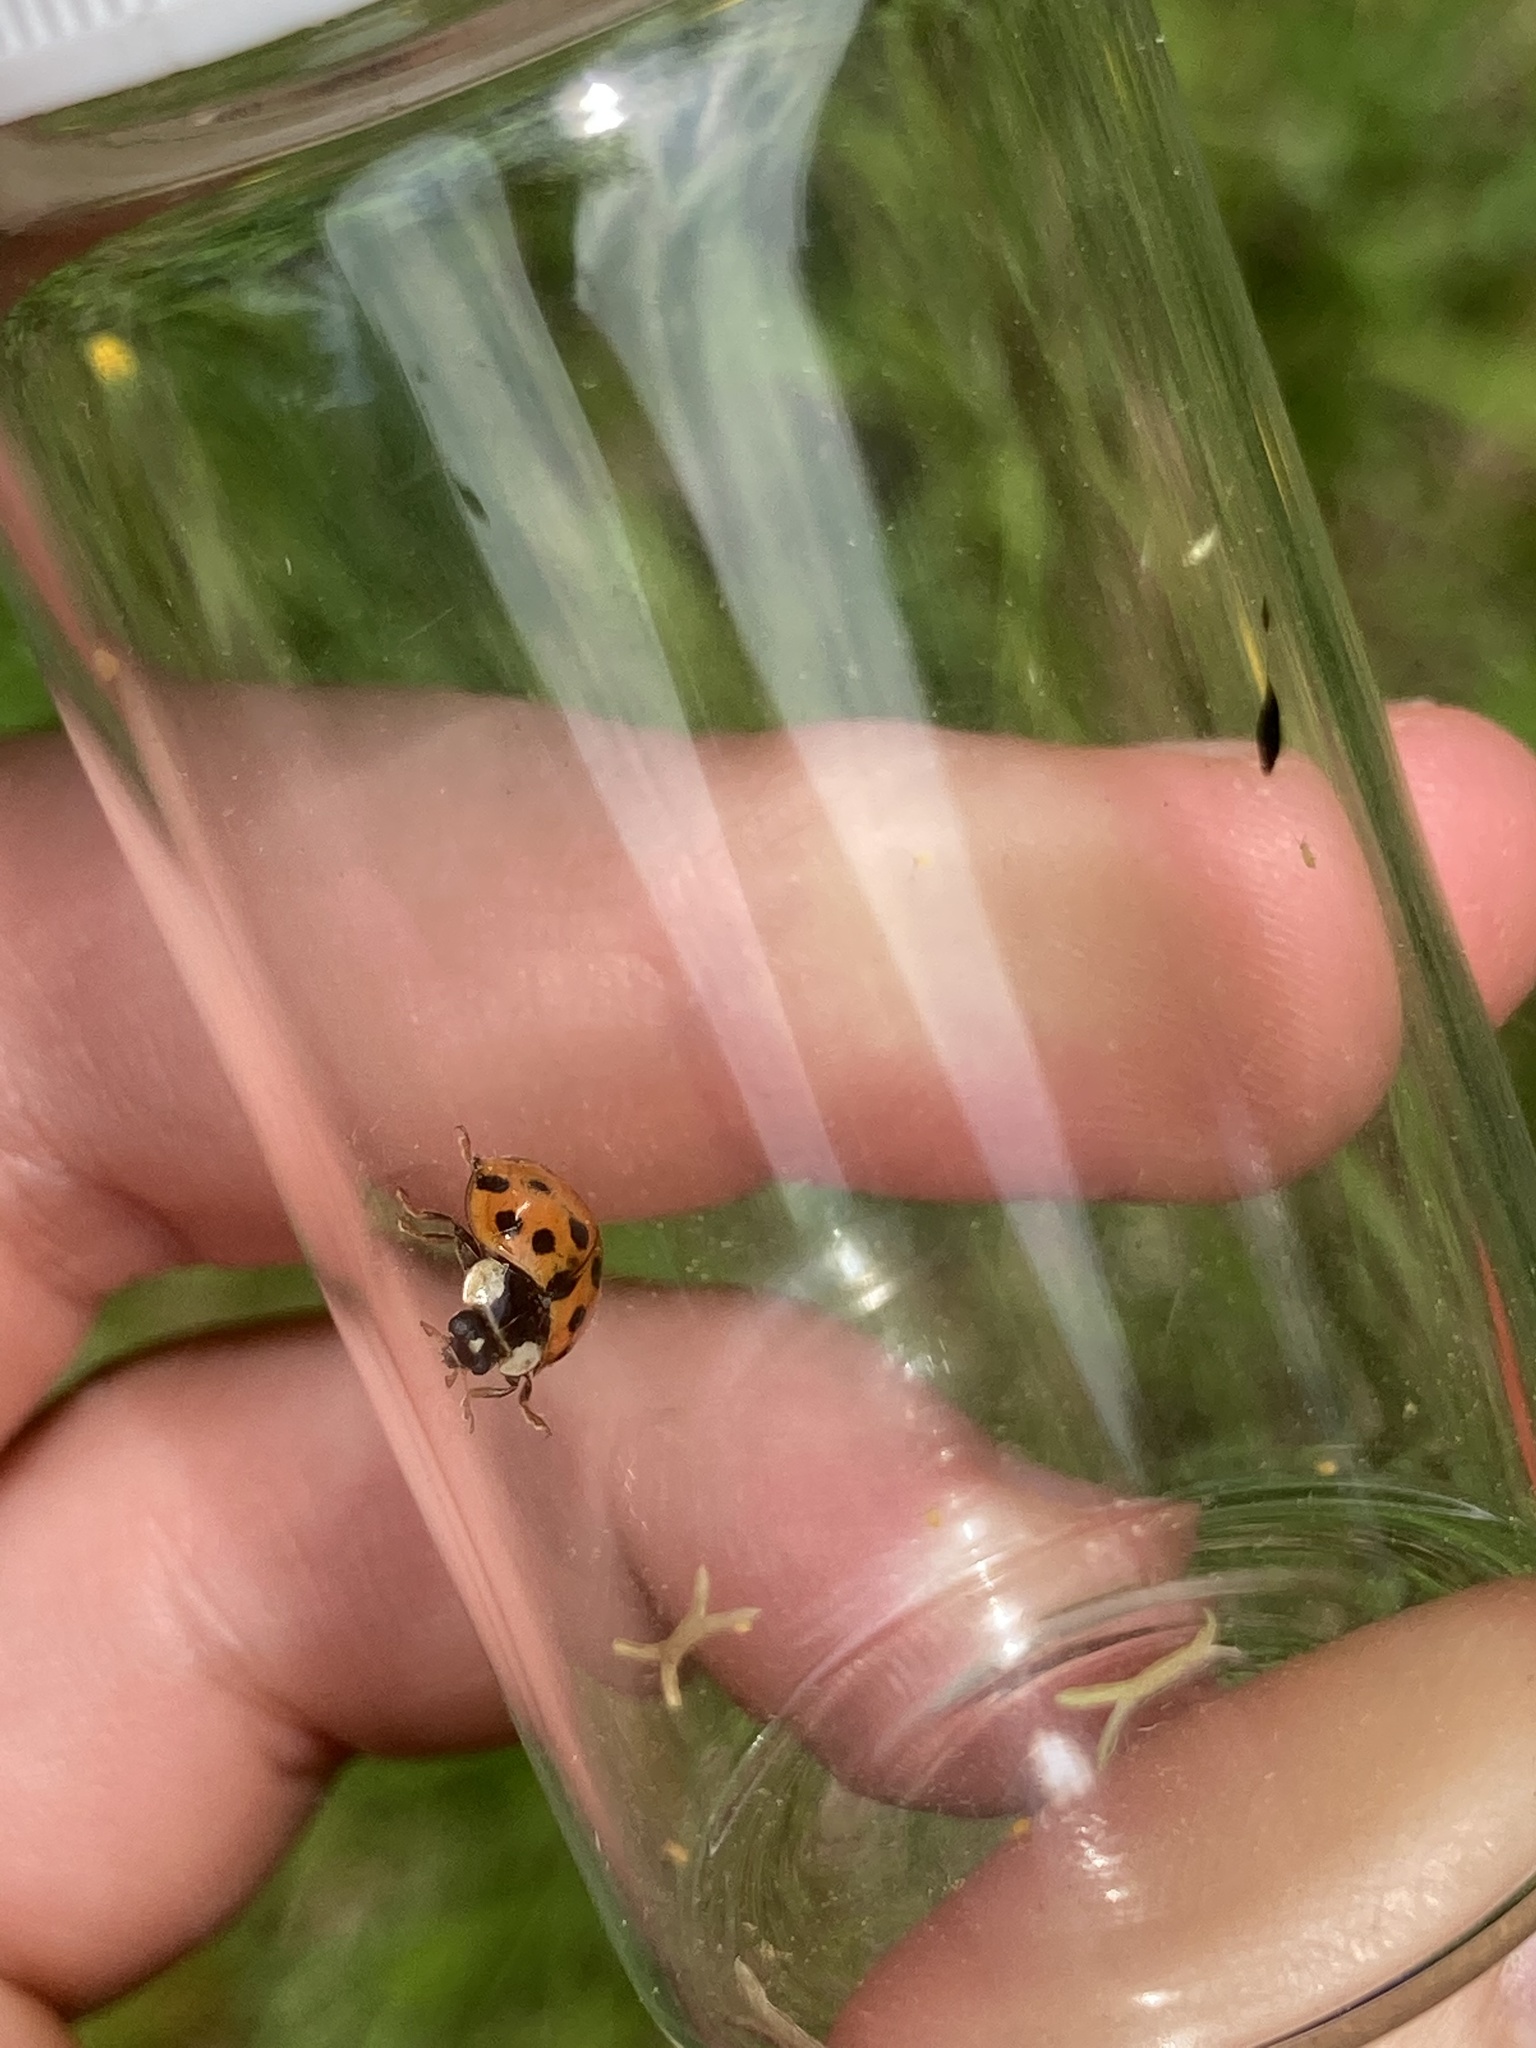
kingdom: Animalia
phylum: Arthropoda
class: Insecta
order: Coleoptera
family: Coccinellidae
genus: Harmonia
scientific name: Harmonia axyridis
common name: Harlequin ladybird
